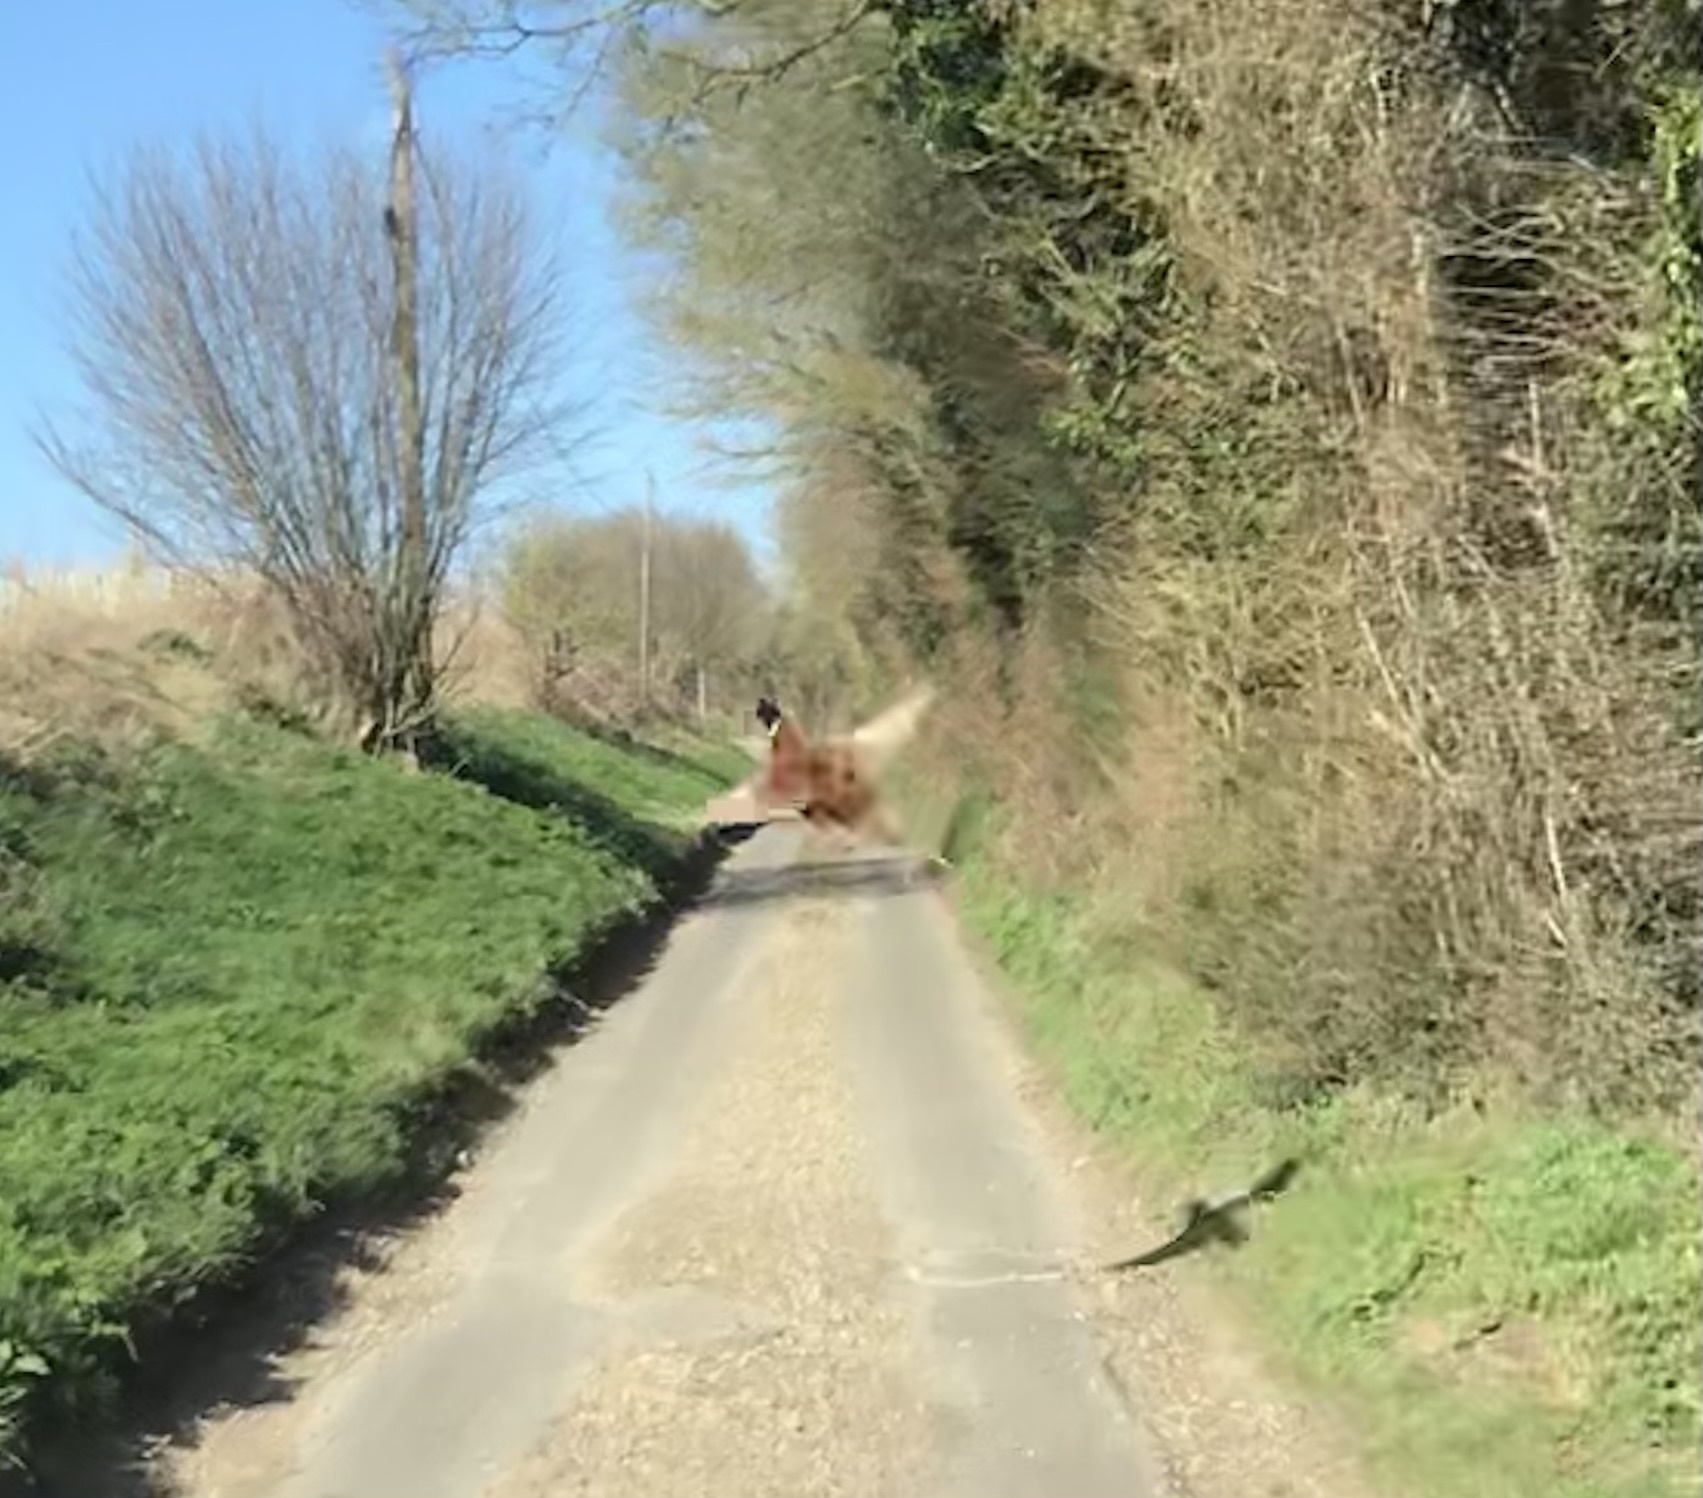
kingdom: Animalia
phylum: Chordata
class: Aves
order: Galliformes
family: Phasianidae
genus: Phasianus
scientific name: Phasianus colchicus
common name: Common pheasant
